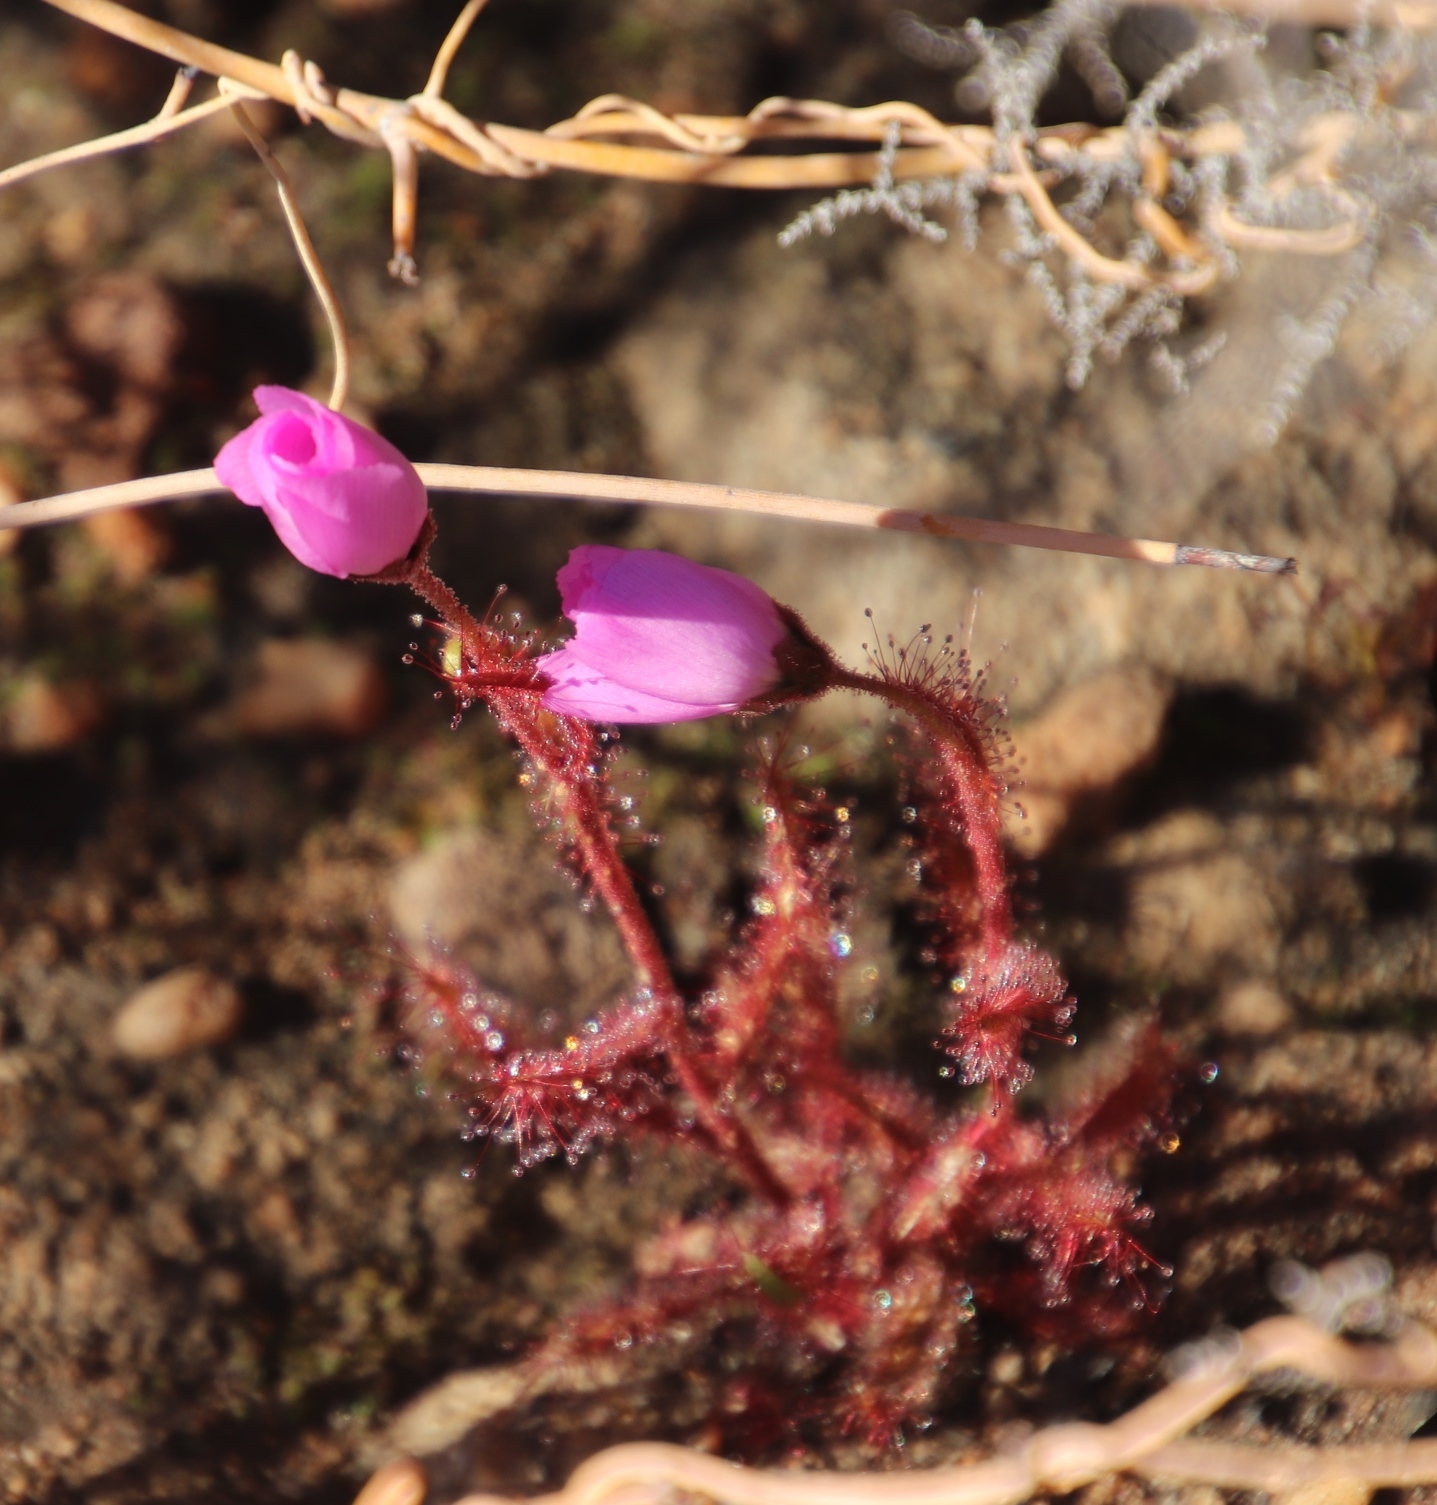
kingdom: Plantae
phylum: Tracheophyta
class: Magnoliopsida
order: Caryophyllales
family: Droseraceae
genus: Drosera
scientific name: Drosera cistiflora
